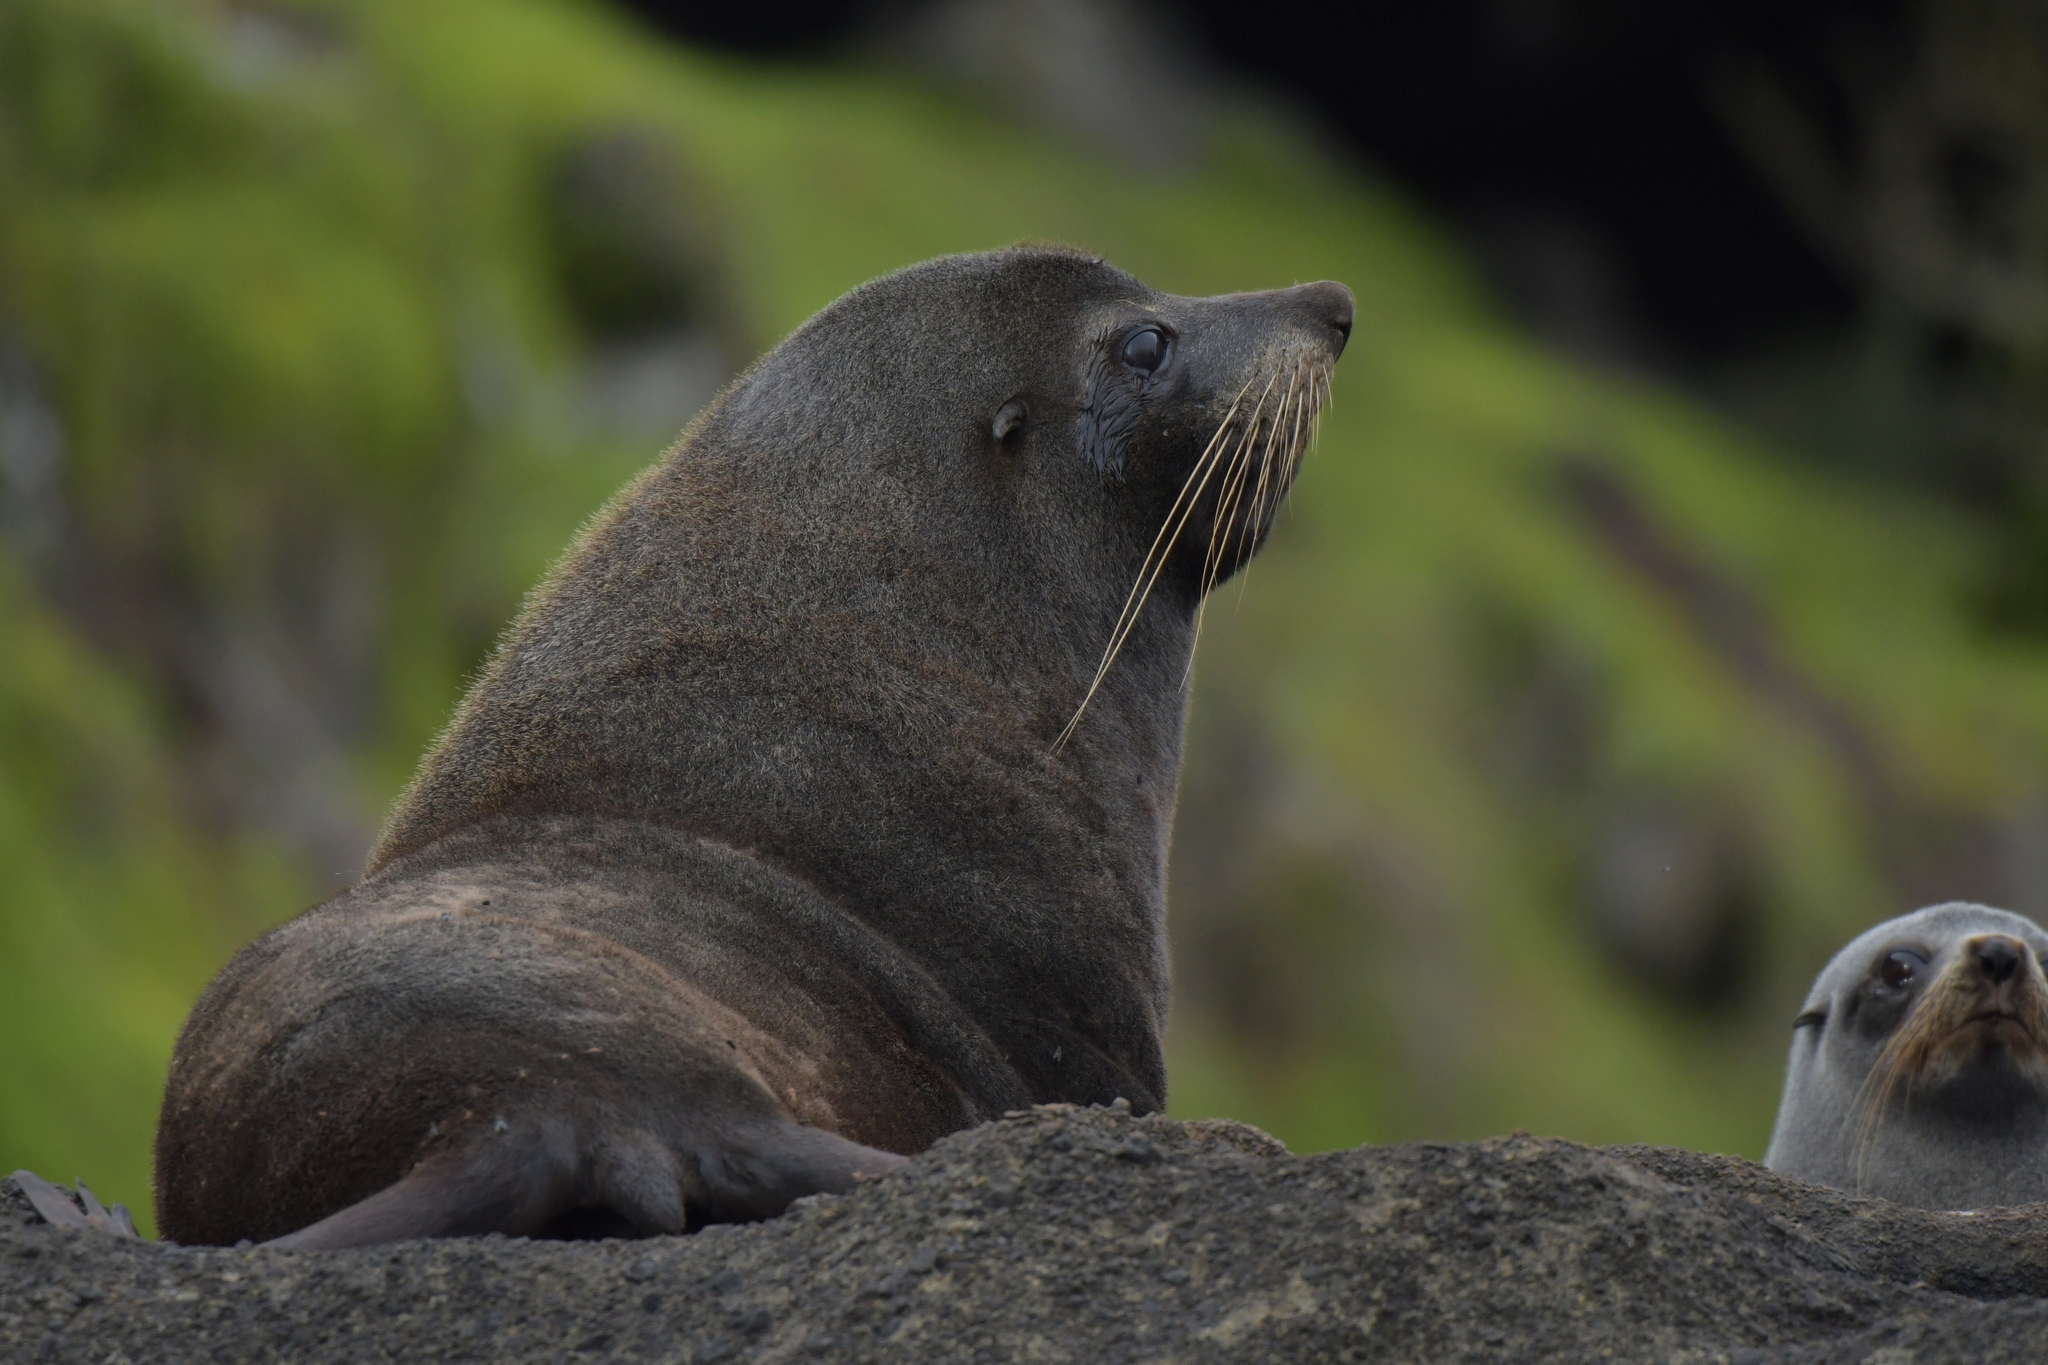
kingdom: Animalia
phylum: Chordata
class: Mammalia
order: Carnivora
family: Otariidae
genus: Arctocephalus
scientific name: Arctocephalus forsteri
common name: New zealand fur seal
